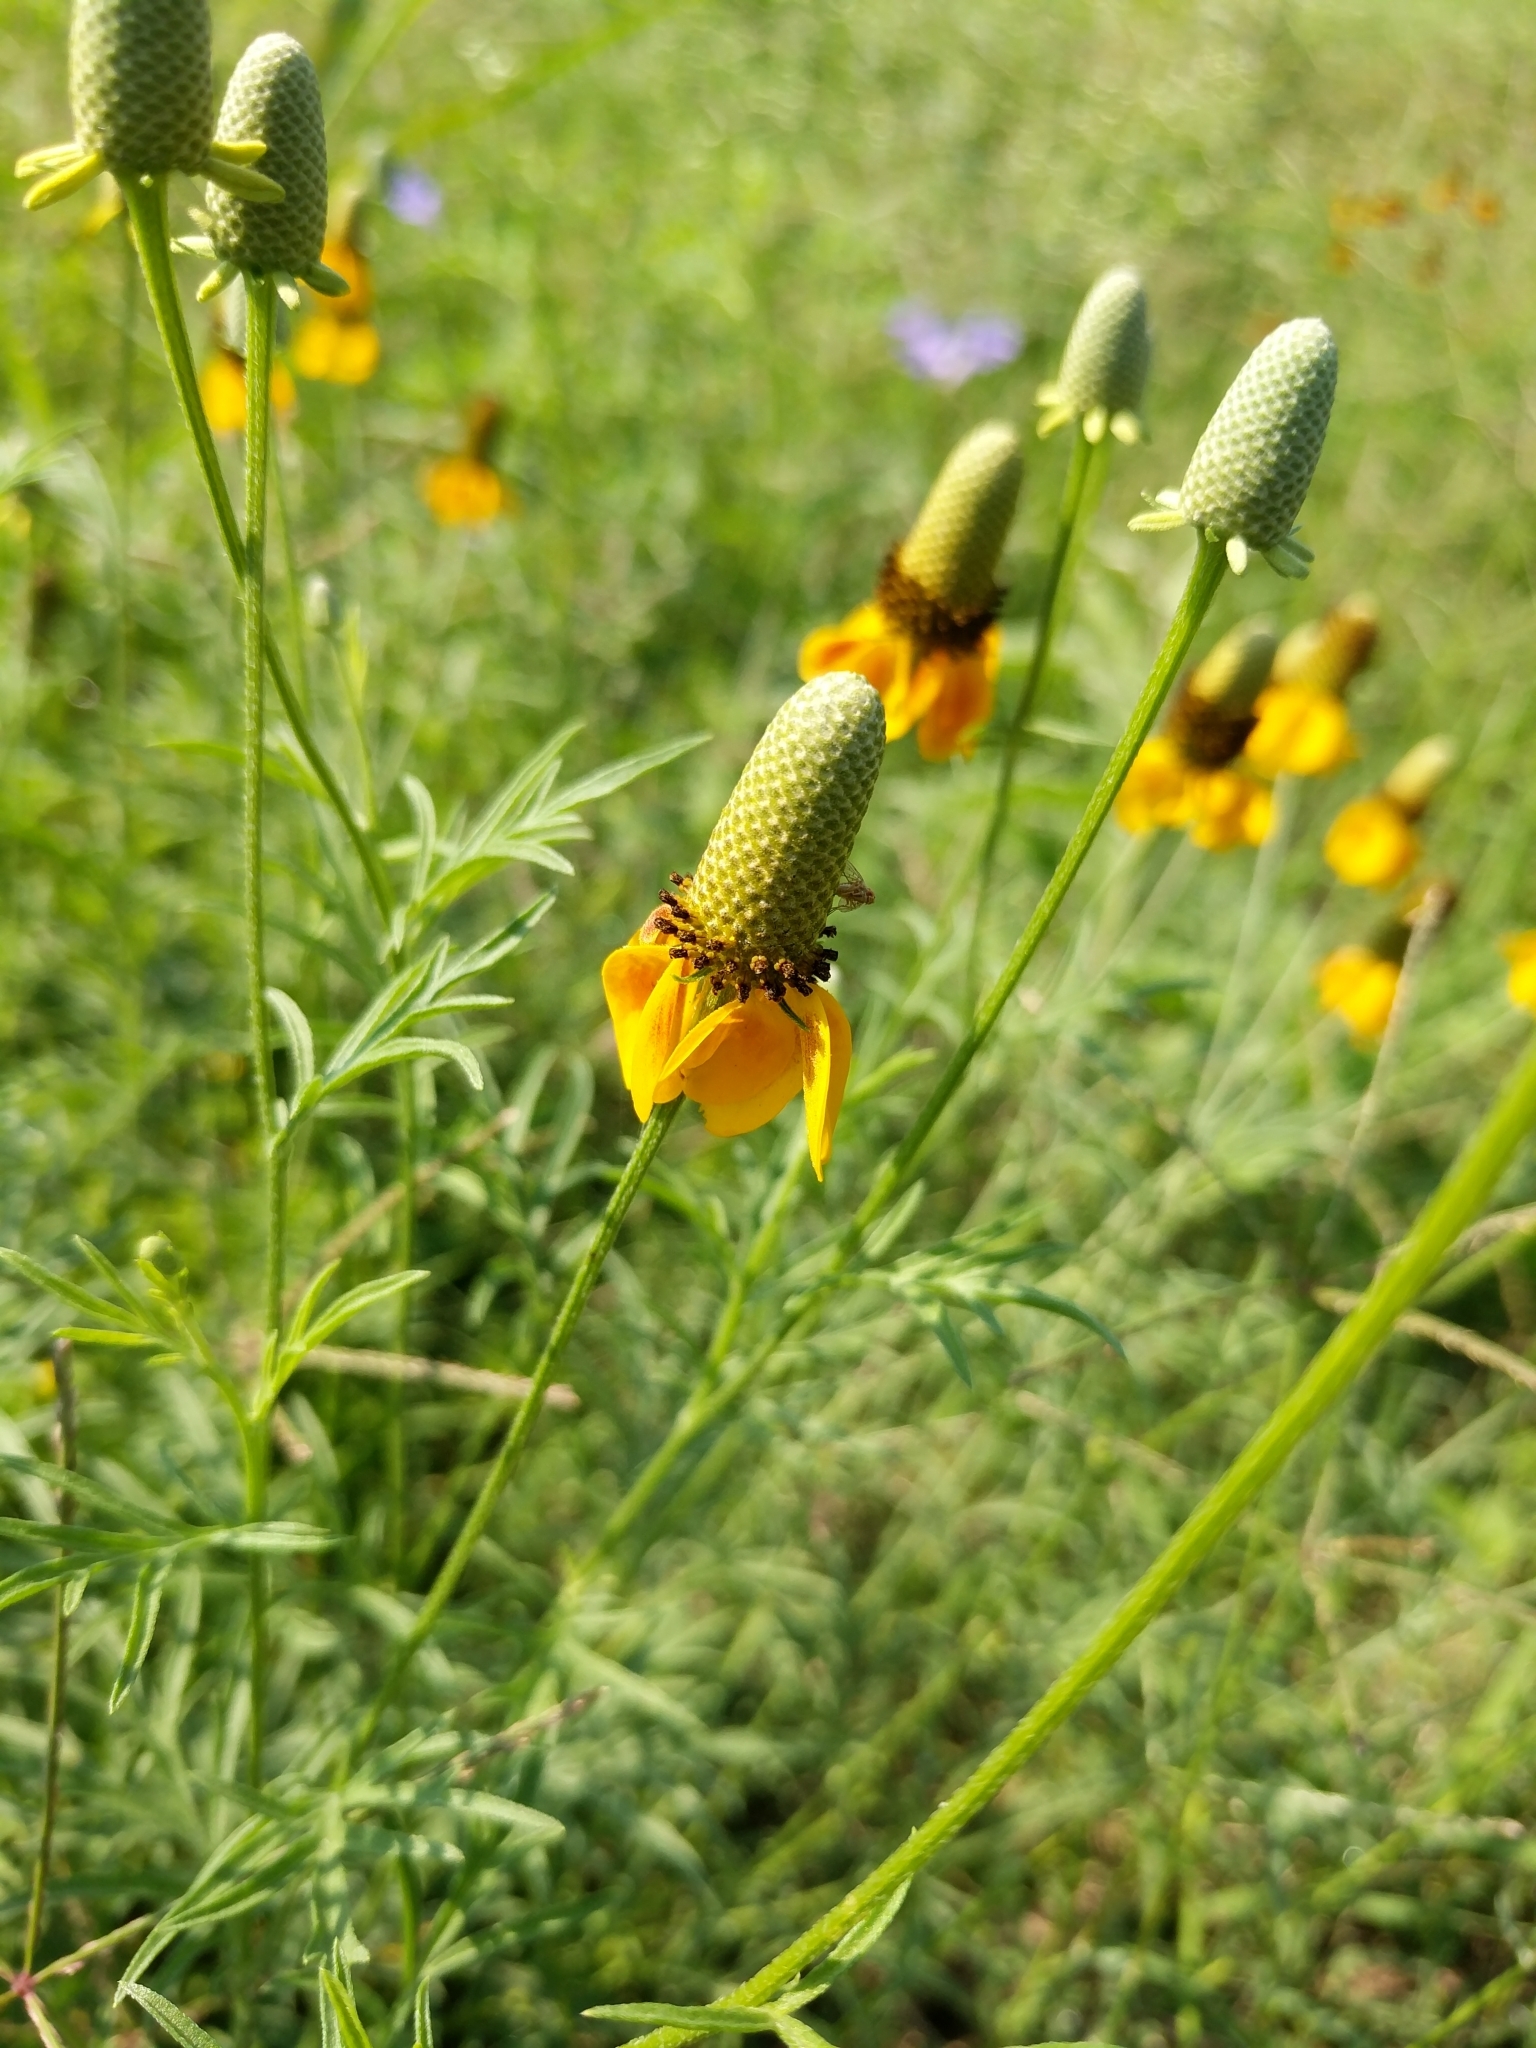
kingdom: Plantae
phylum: Tracheophyta
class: Magnoliopsida
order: Asterales
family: Asteraceae
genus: Ratibida
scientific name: Ratibida columnifera
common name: Prairie coneflower
